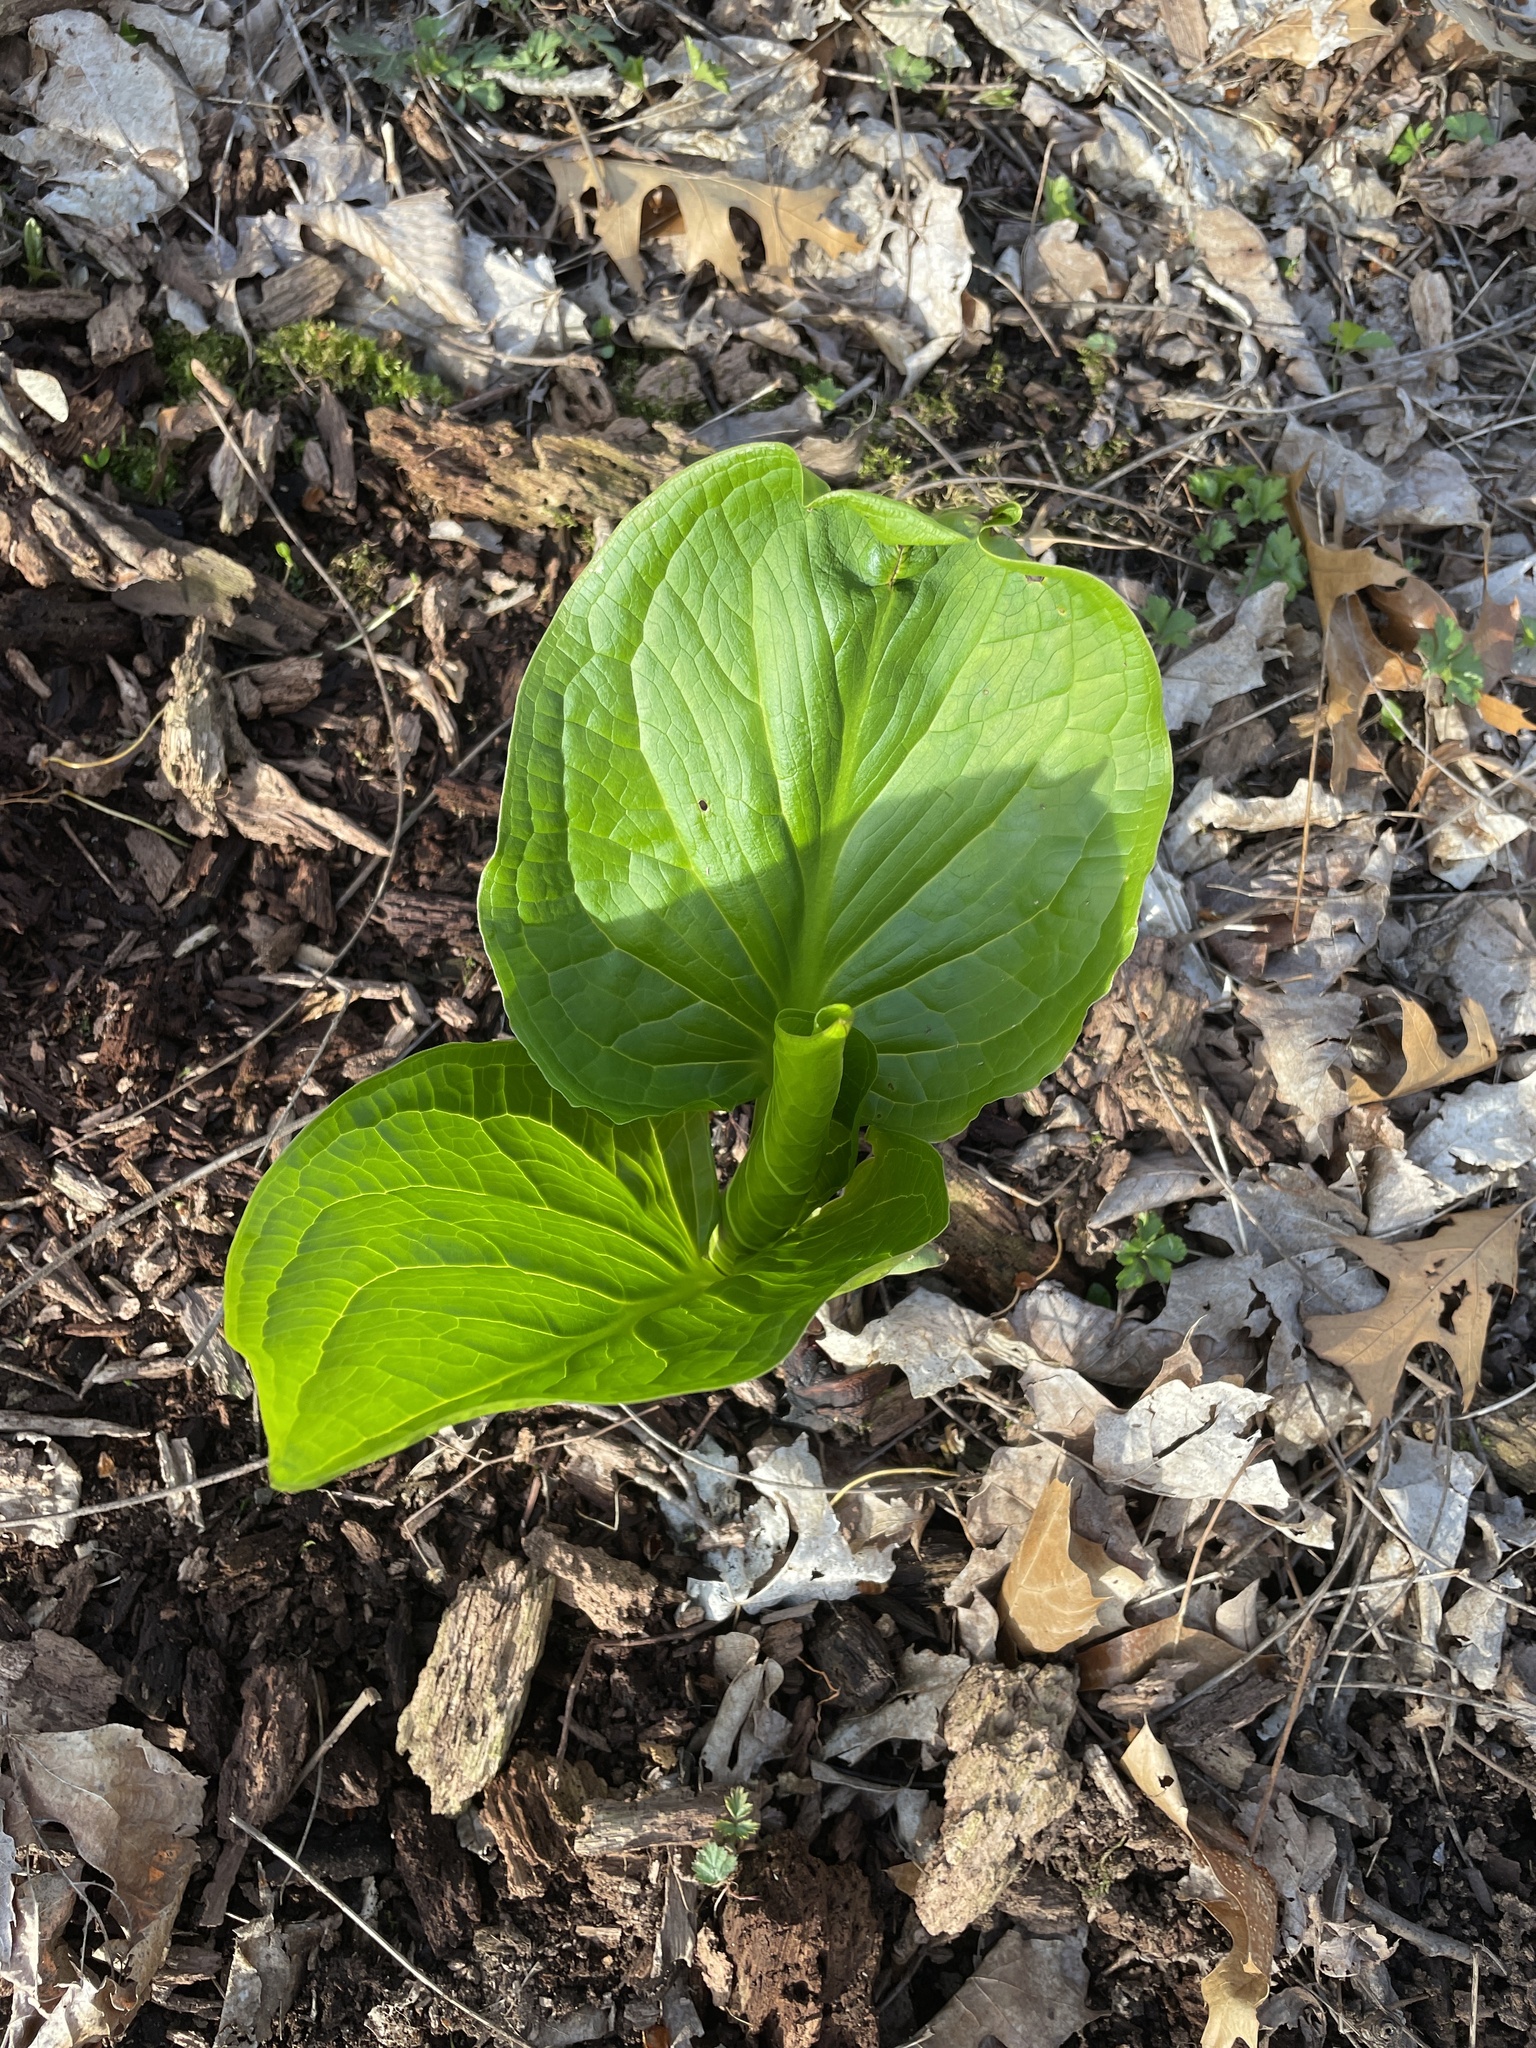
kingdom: Plantae
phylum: Tracheophyta
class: Liliopsida
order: Alismatales
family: Araceae
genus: Symplocarpus
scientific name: Symplocarpus foetidus
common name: Eastern skunk cabbage
